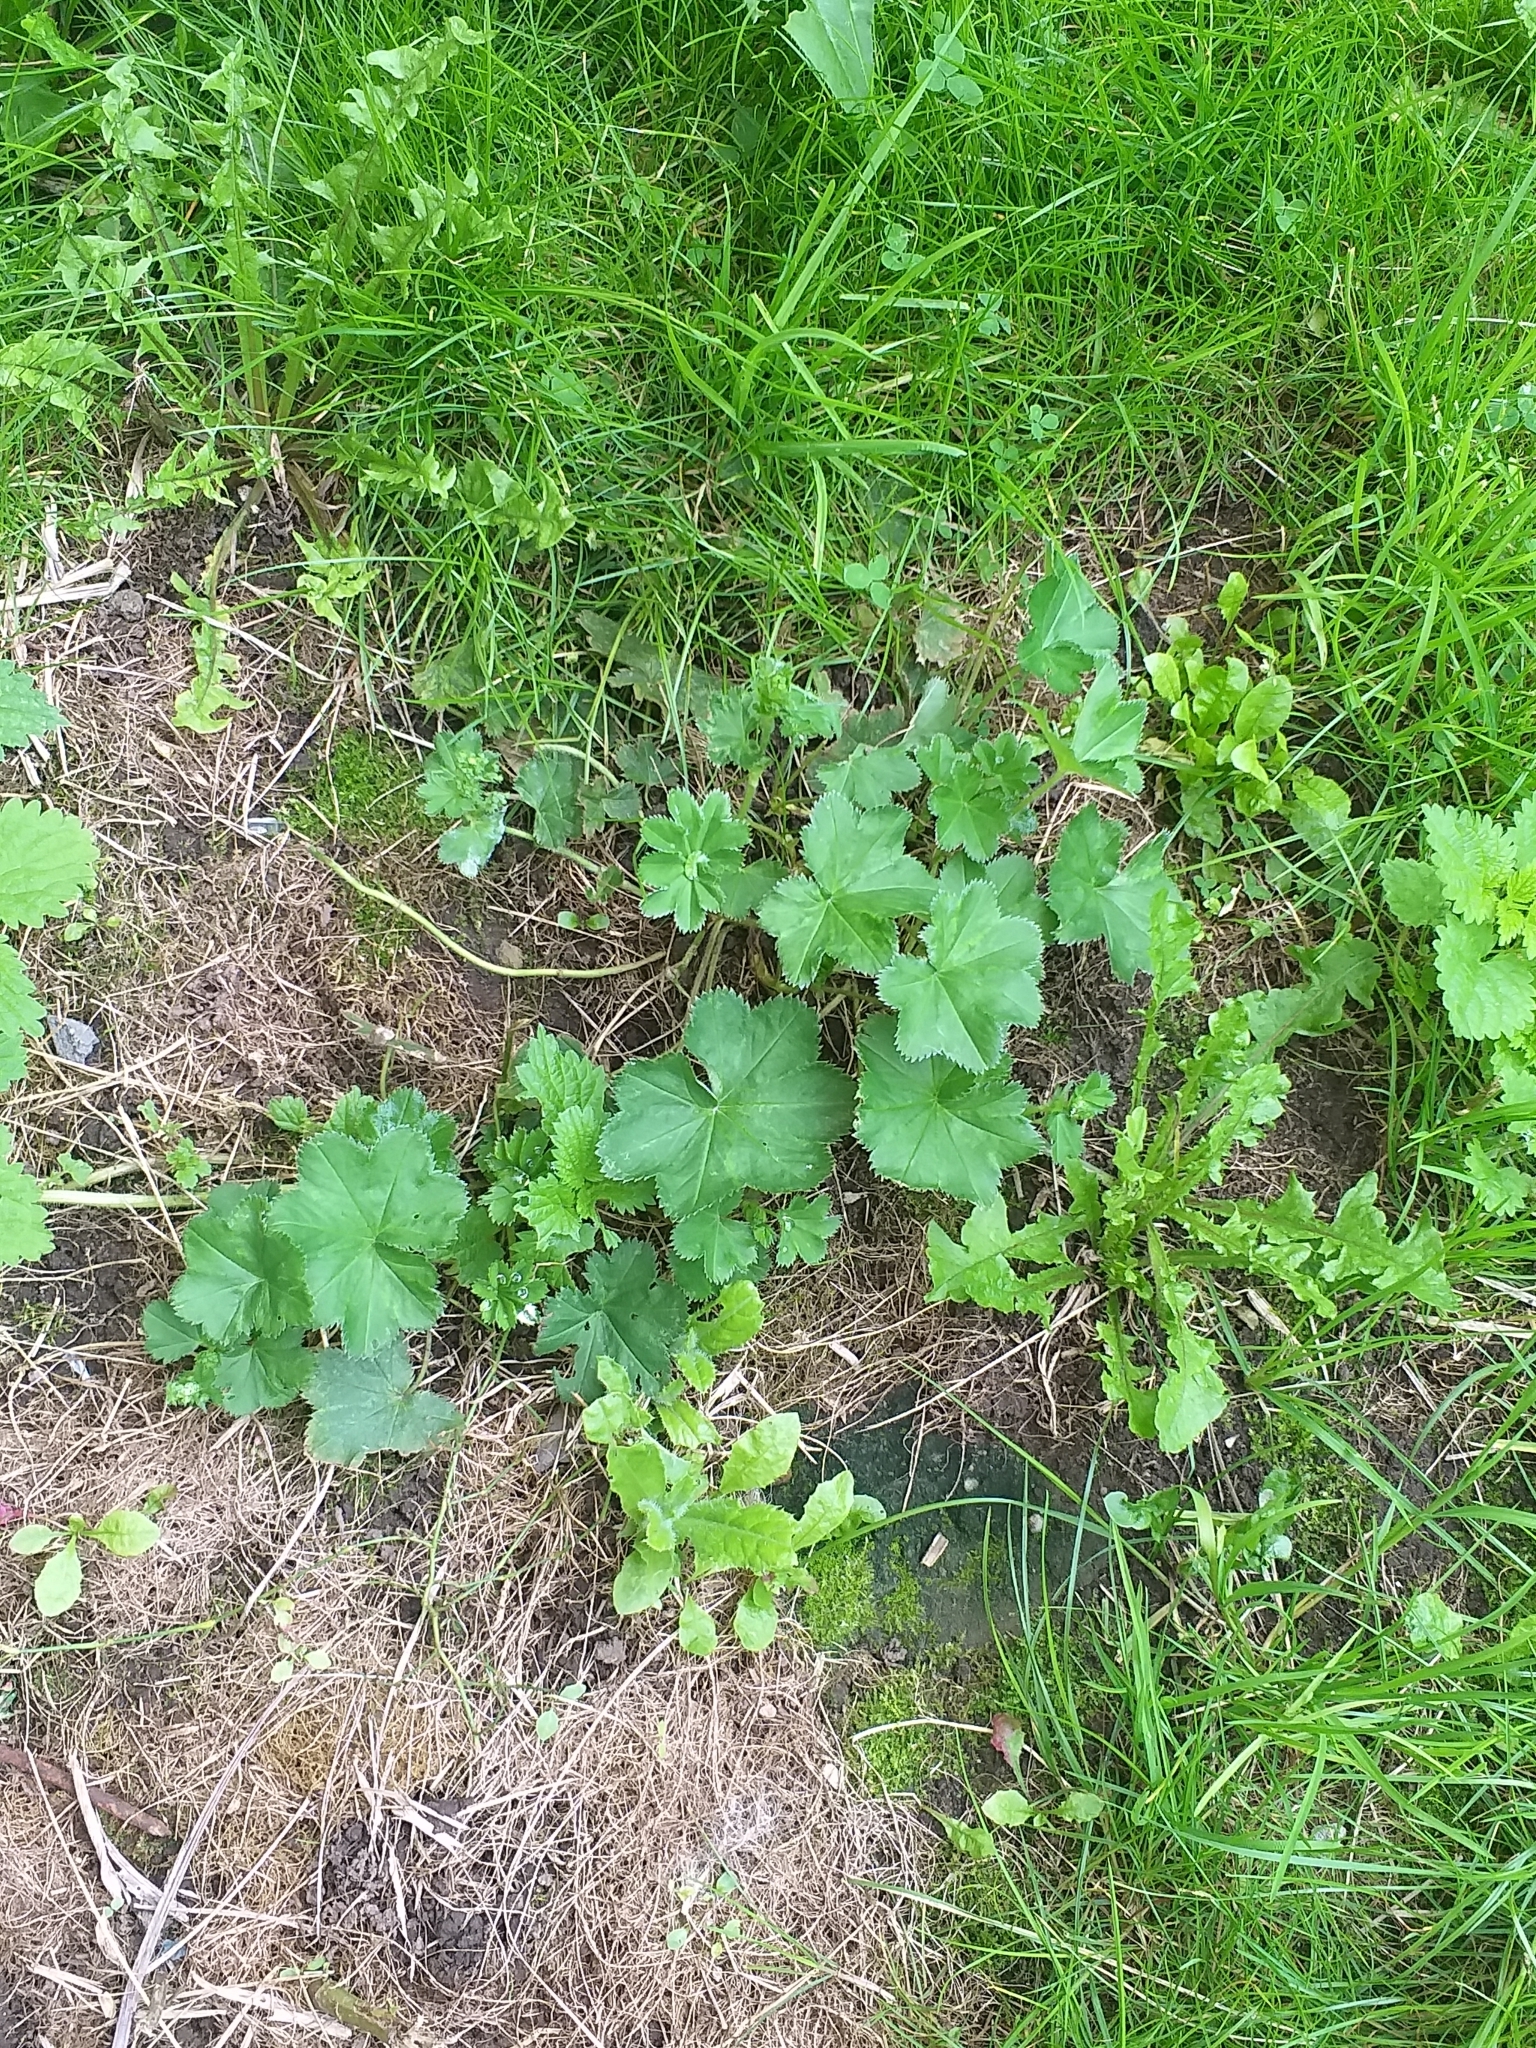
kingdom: Plantae
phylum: Tracheophyta
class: Magnoliopsida
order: Rosales
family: Rosaceae
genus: Alchemilla
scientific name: Alchemilla cymatophylla
